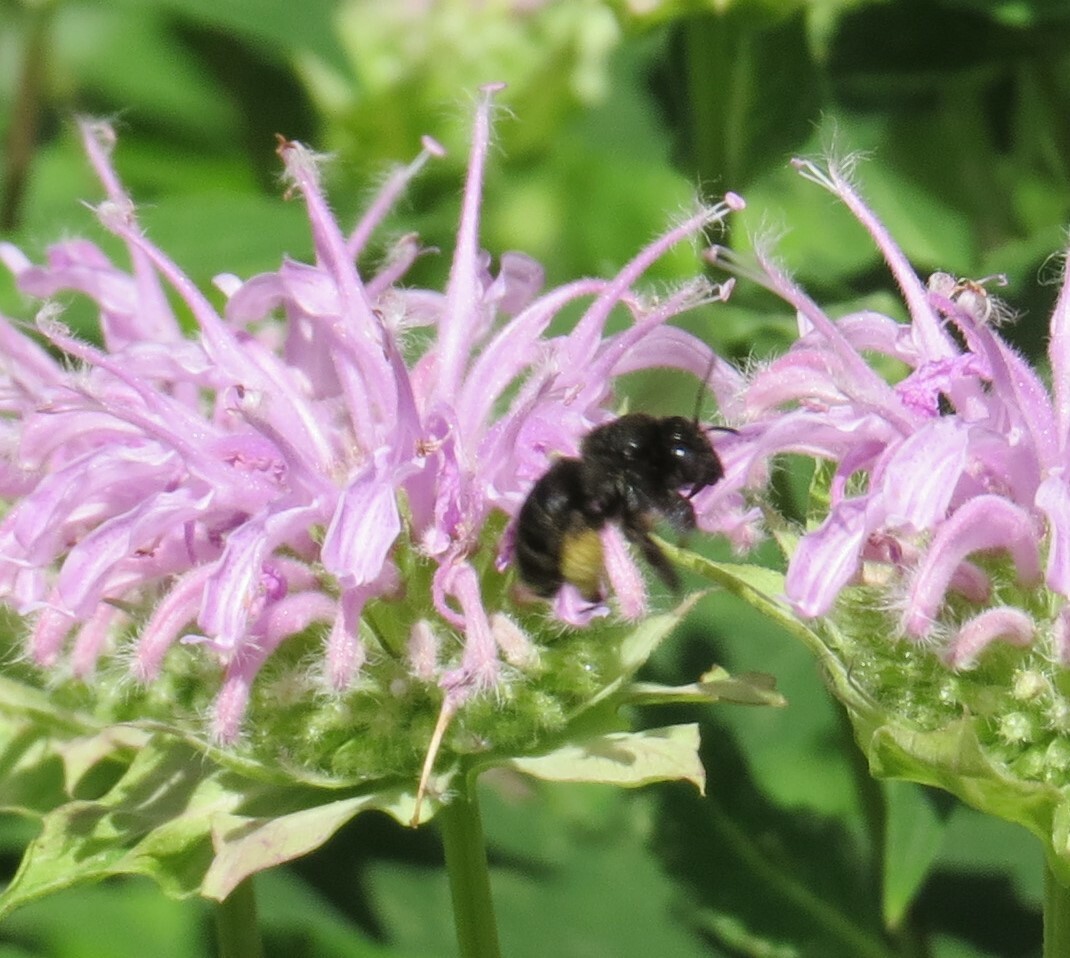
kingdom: Animalia
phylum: Arthropoda
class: Insecta
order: Hymenoptera
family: Apidae
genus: Melissodes
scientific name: Melissodes bimaculatus
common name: Two-spotted long-horned bee
